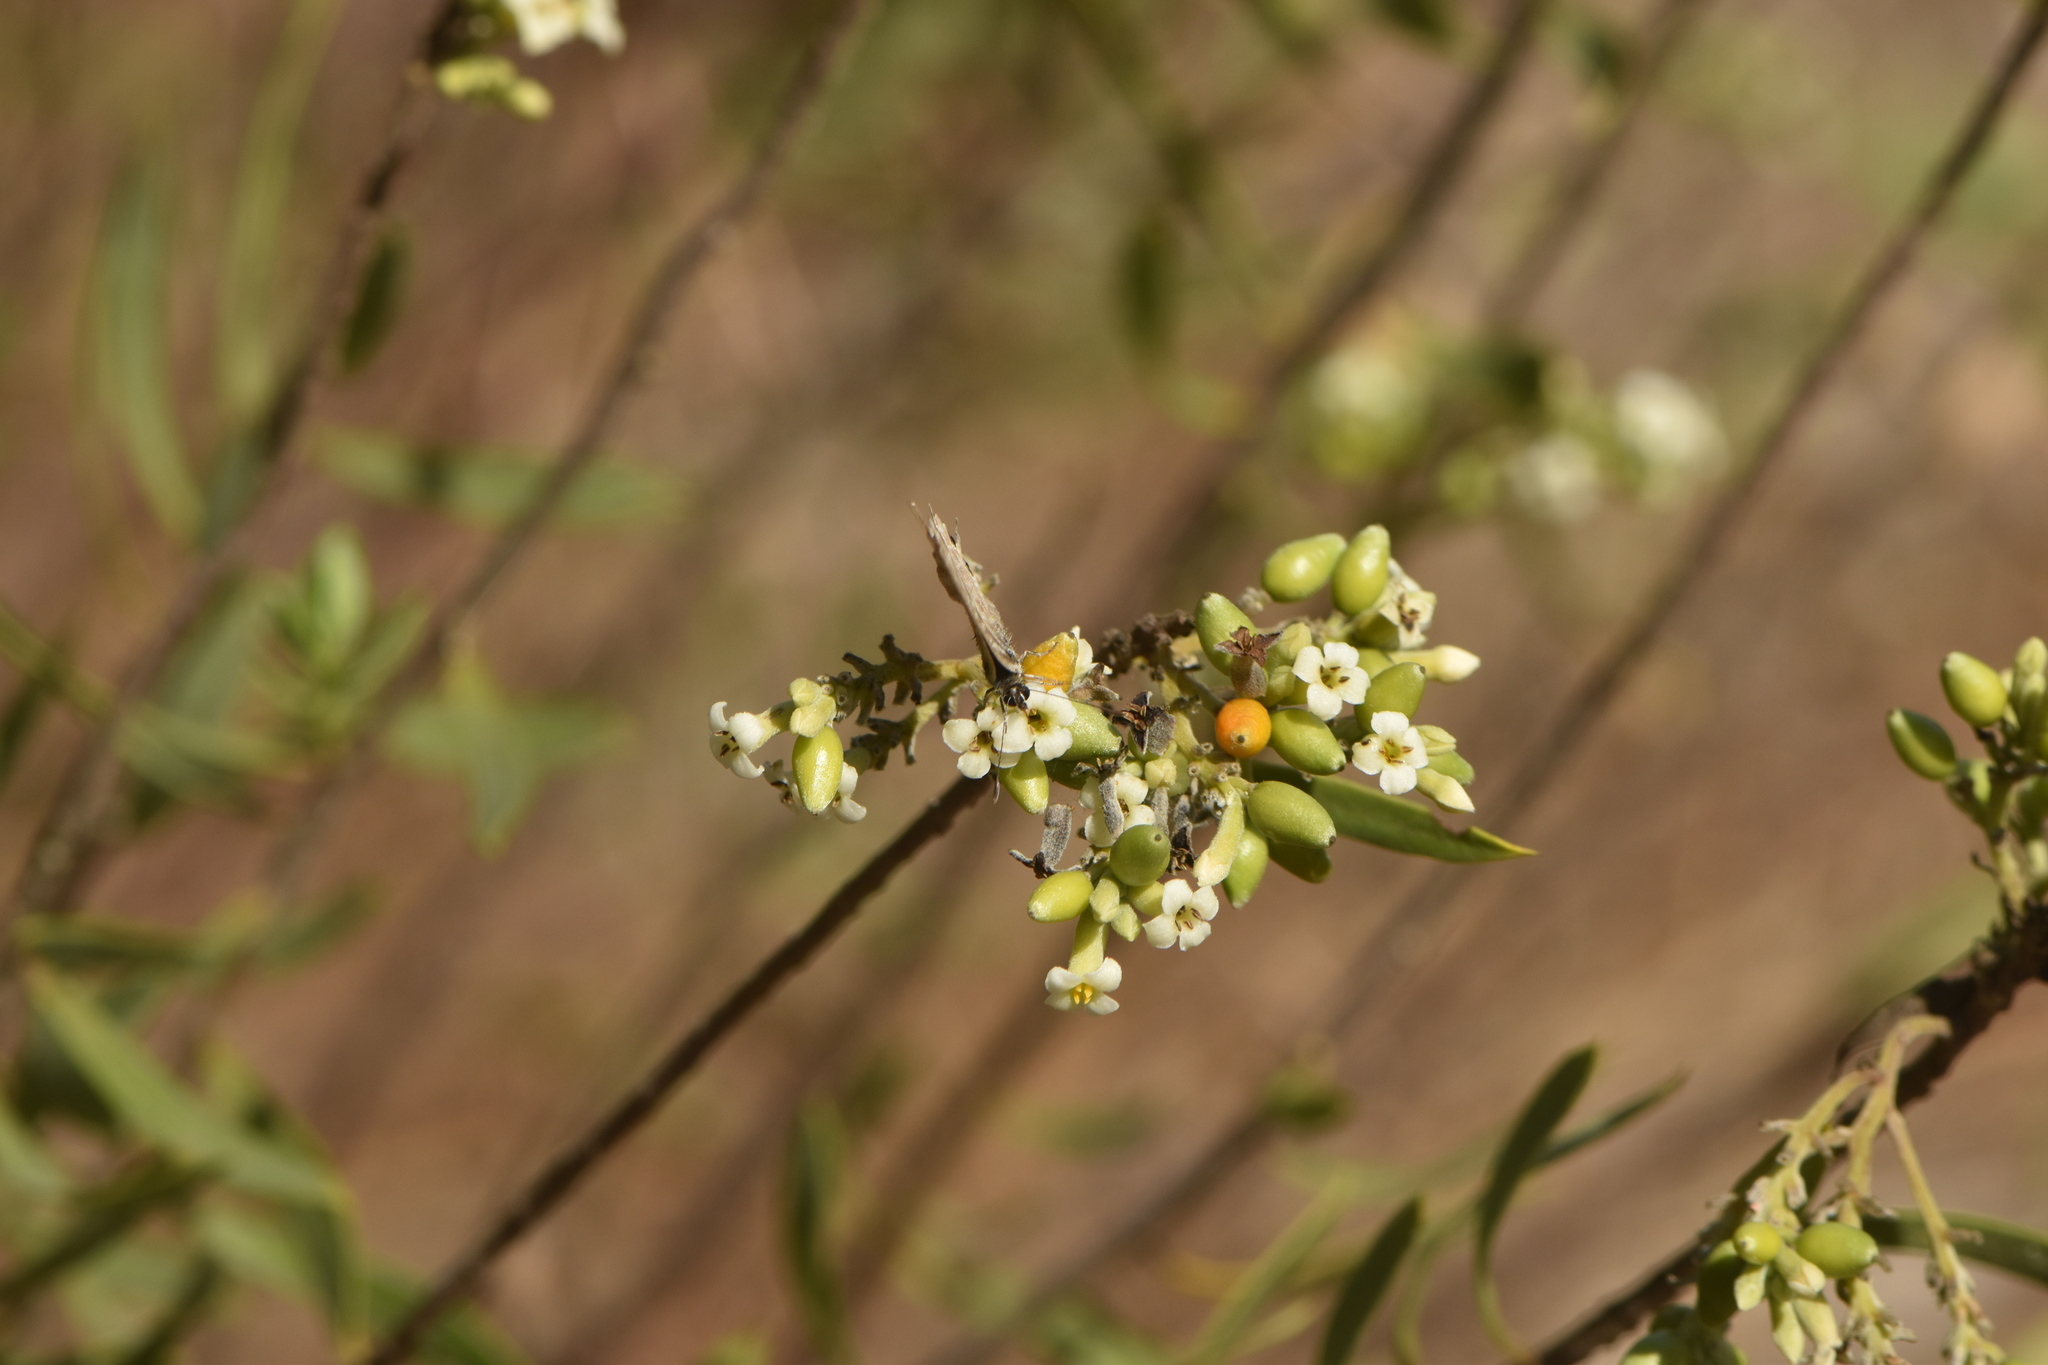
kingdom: Animalia
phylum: Arthropoda
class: Insecta
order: Lepidoptera
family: Lycaenidae
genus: Leptotes
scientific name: Leptotes pirithous
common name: Lang's short-tailed blue
